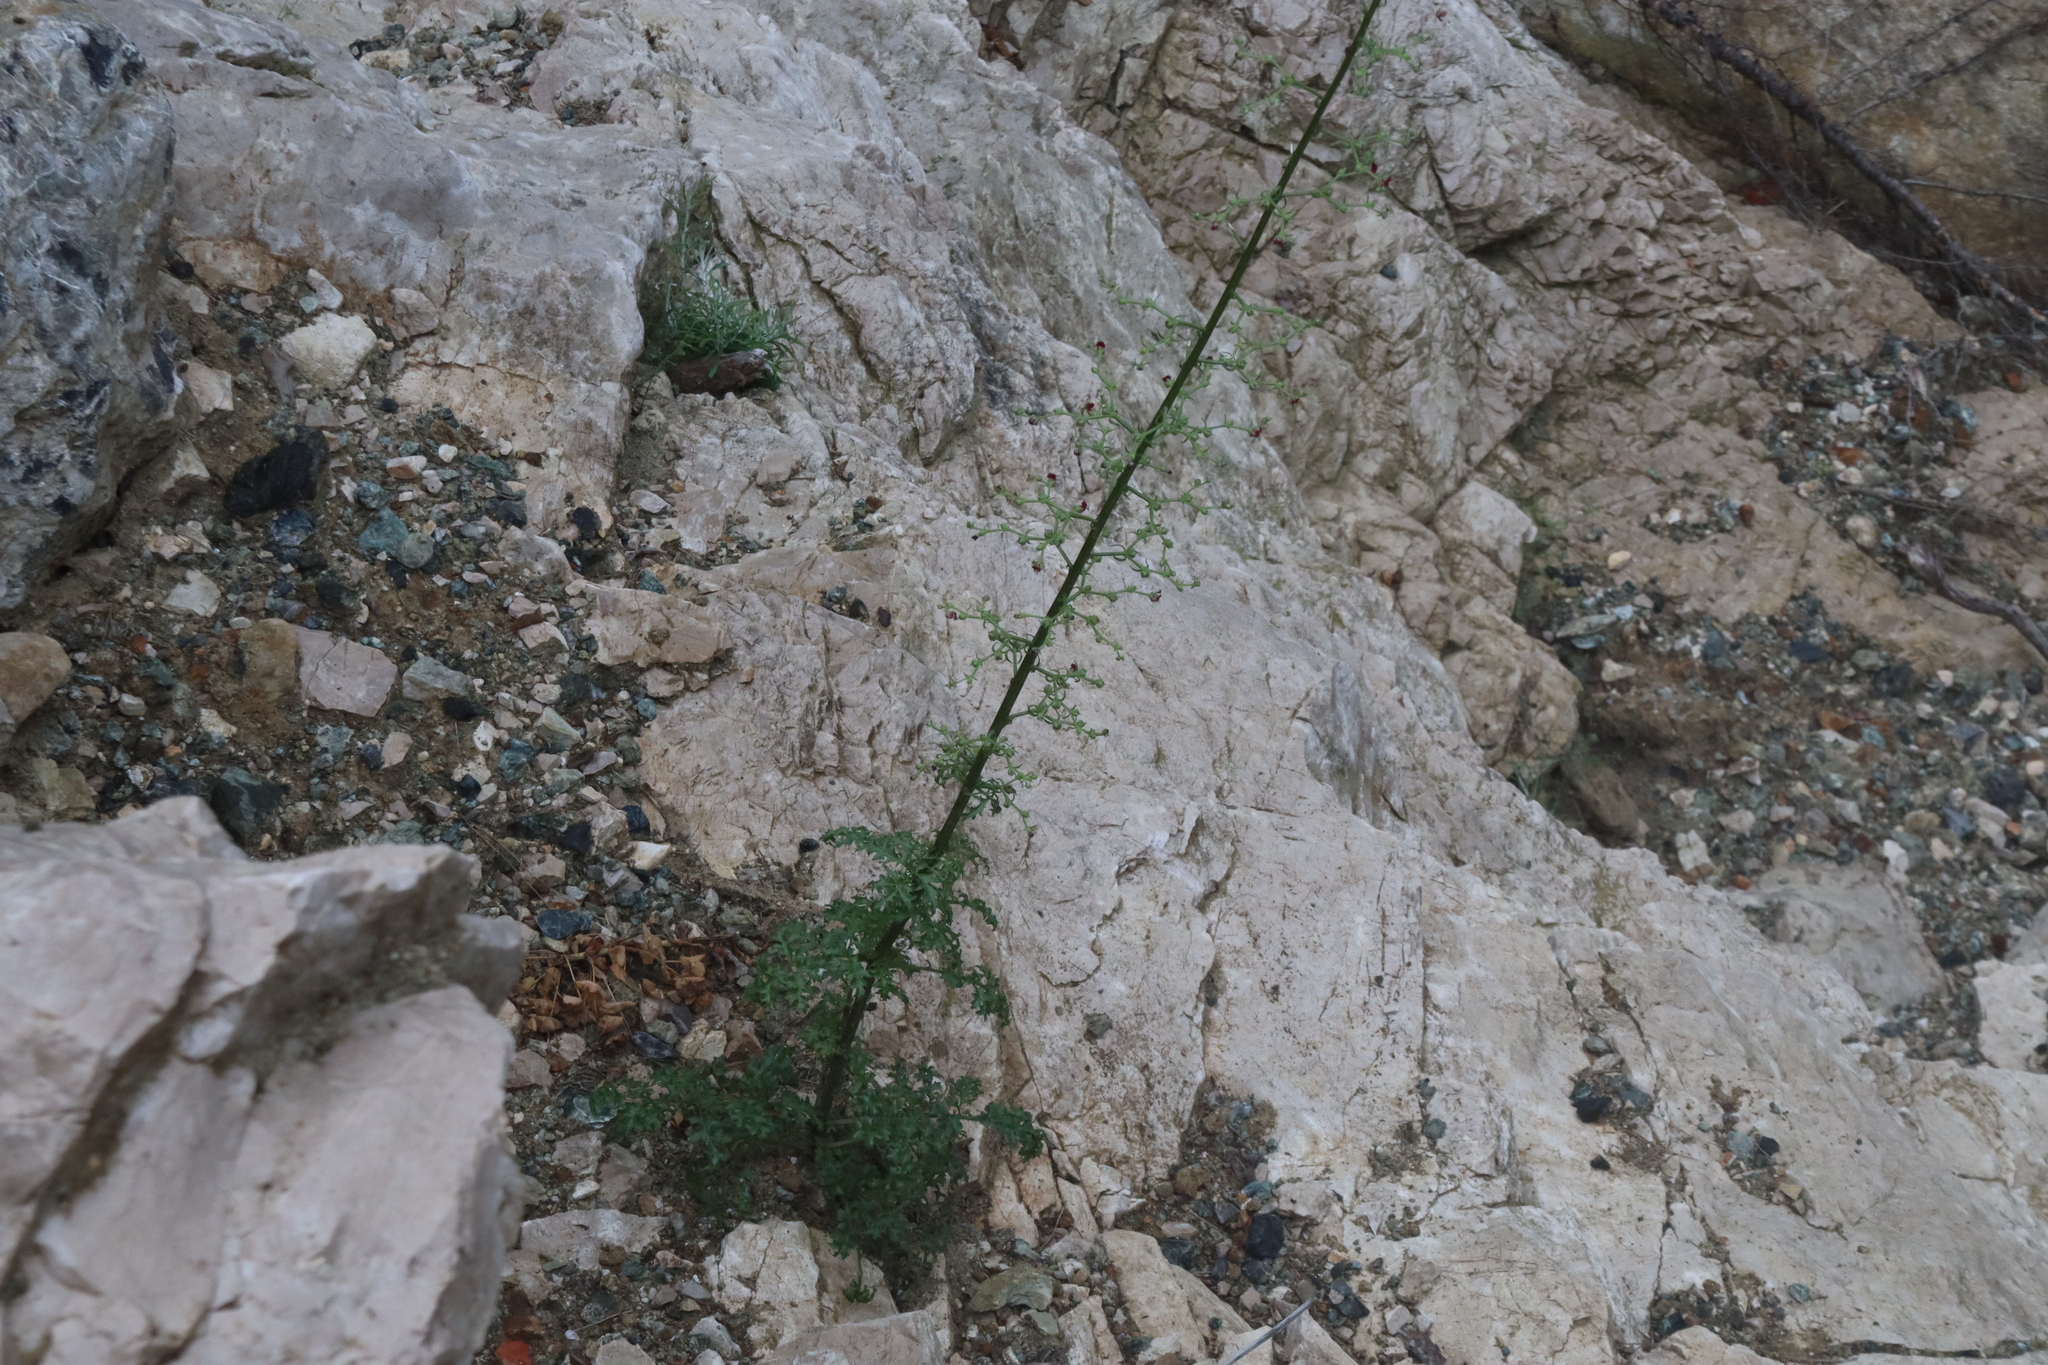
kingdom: Plantae
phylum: Tracheophyta
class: Magnoliopsida
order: Lamiales
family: Scrophulariaceae
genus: Scrophularia
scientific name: Scrophularia lucida
